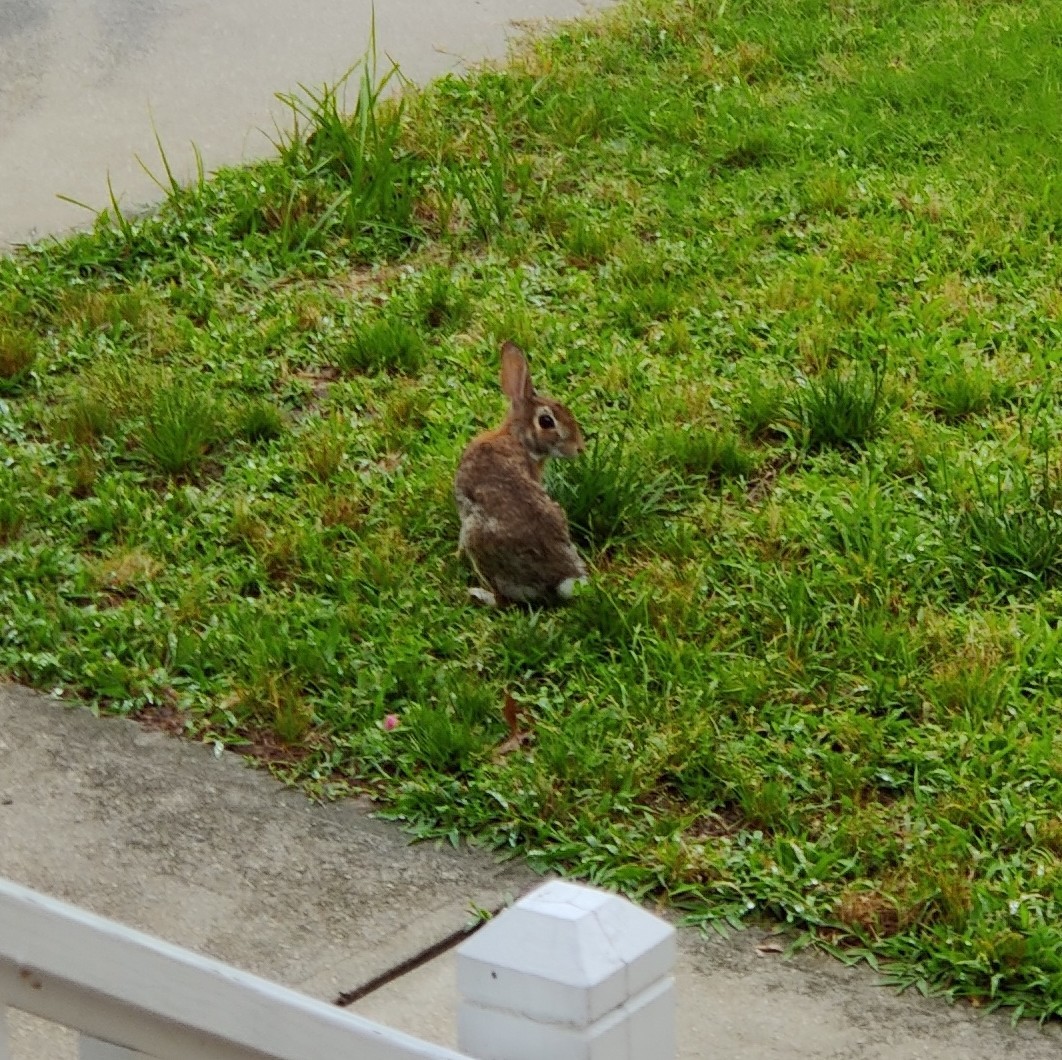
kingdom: Animalia
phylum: Chordata
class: Mammalia
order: Lagomorpha
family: Leporidae
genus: Sylvilagus
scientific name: Sylvilagus floridanus
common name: Eastern cottontail
